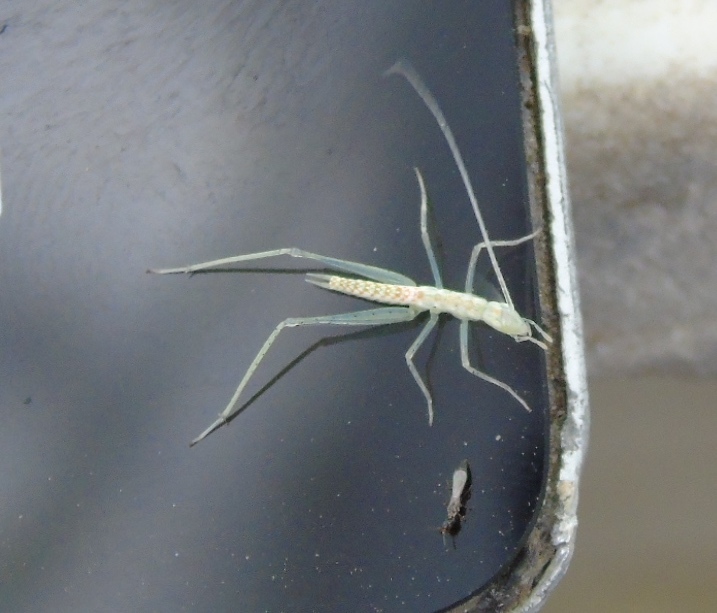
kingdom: Animalia
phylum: Arthropoda
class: Insecta
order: Orthoptera
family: Gryllidae
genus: Oecanthus
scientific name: Oecanthus
